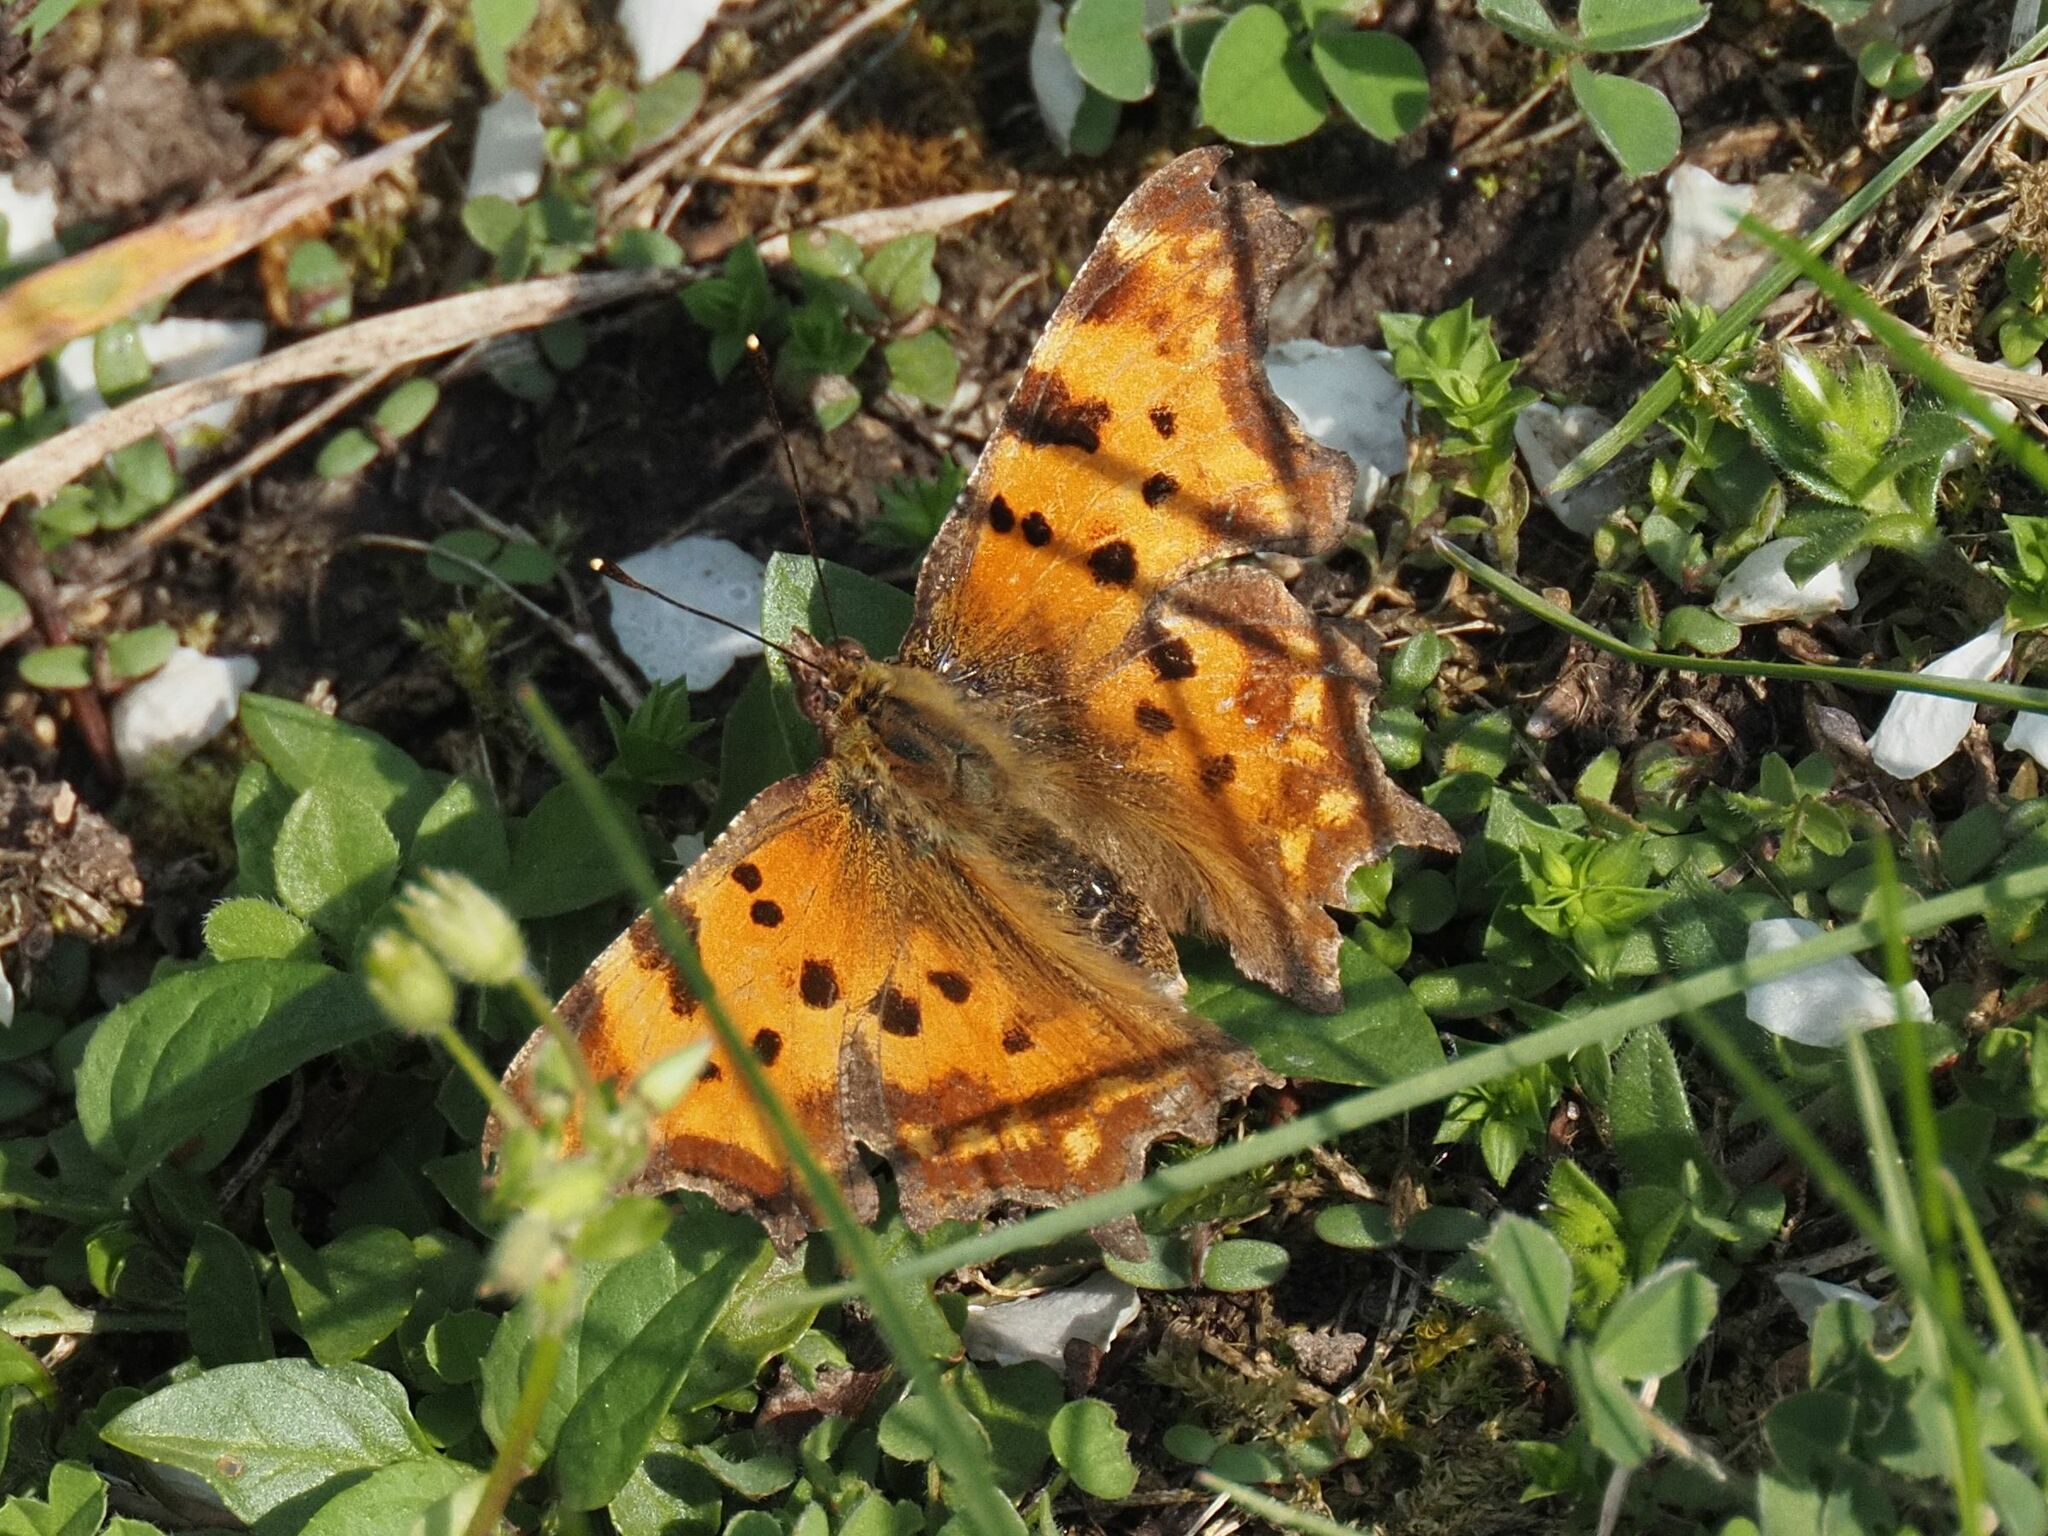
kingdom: Animalia
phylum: Arthropoda
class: Insecta
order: Lepidoptera
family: Nymphalidae
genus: Polygonia
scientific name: Polygonia c-album
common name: Comma
